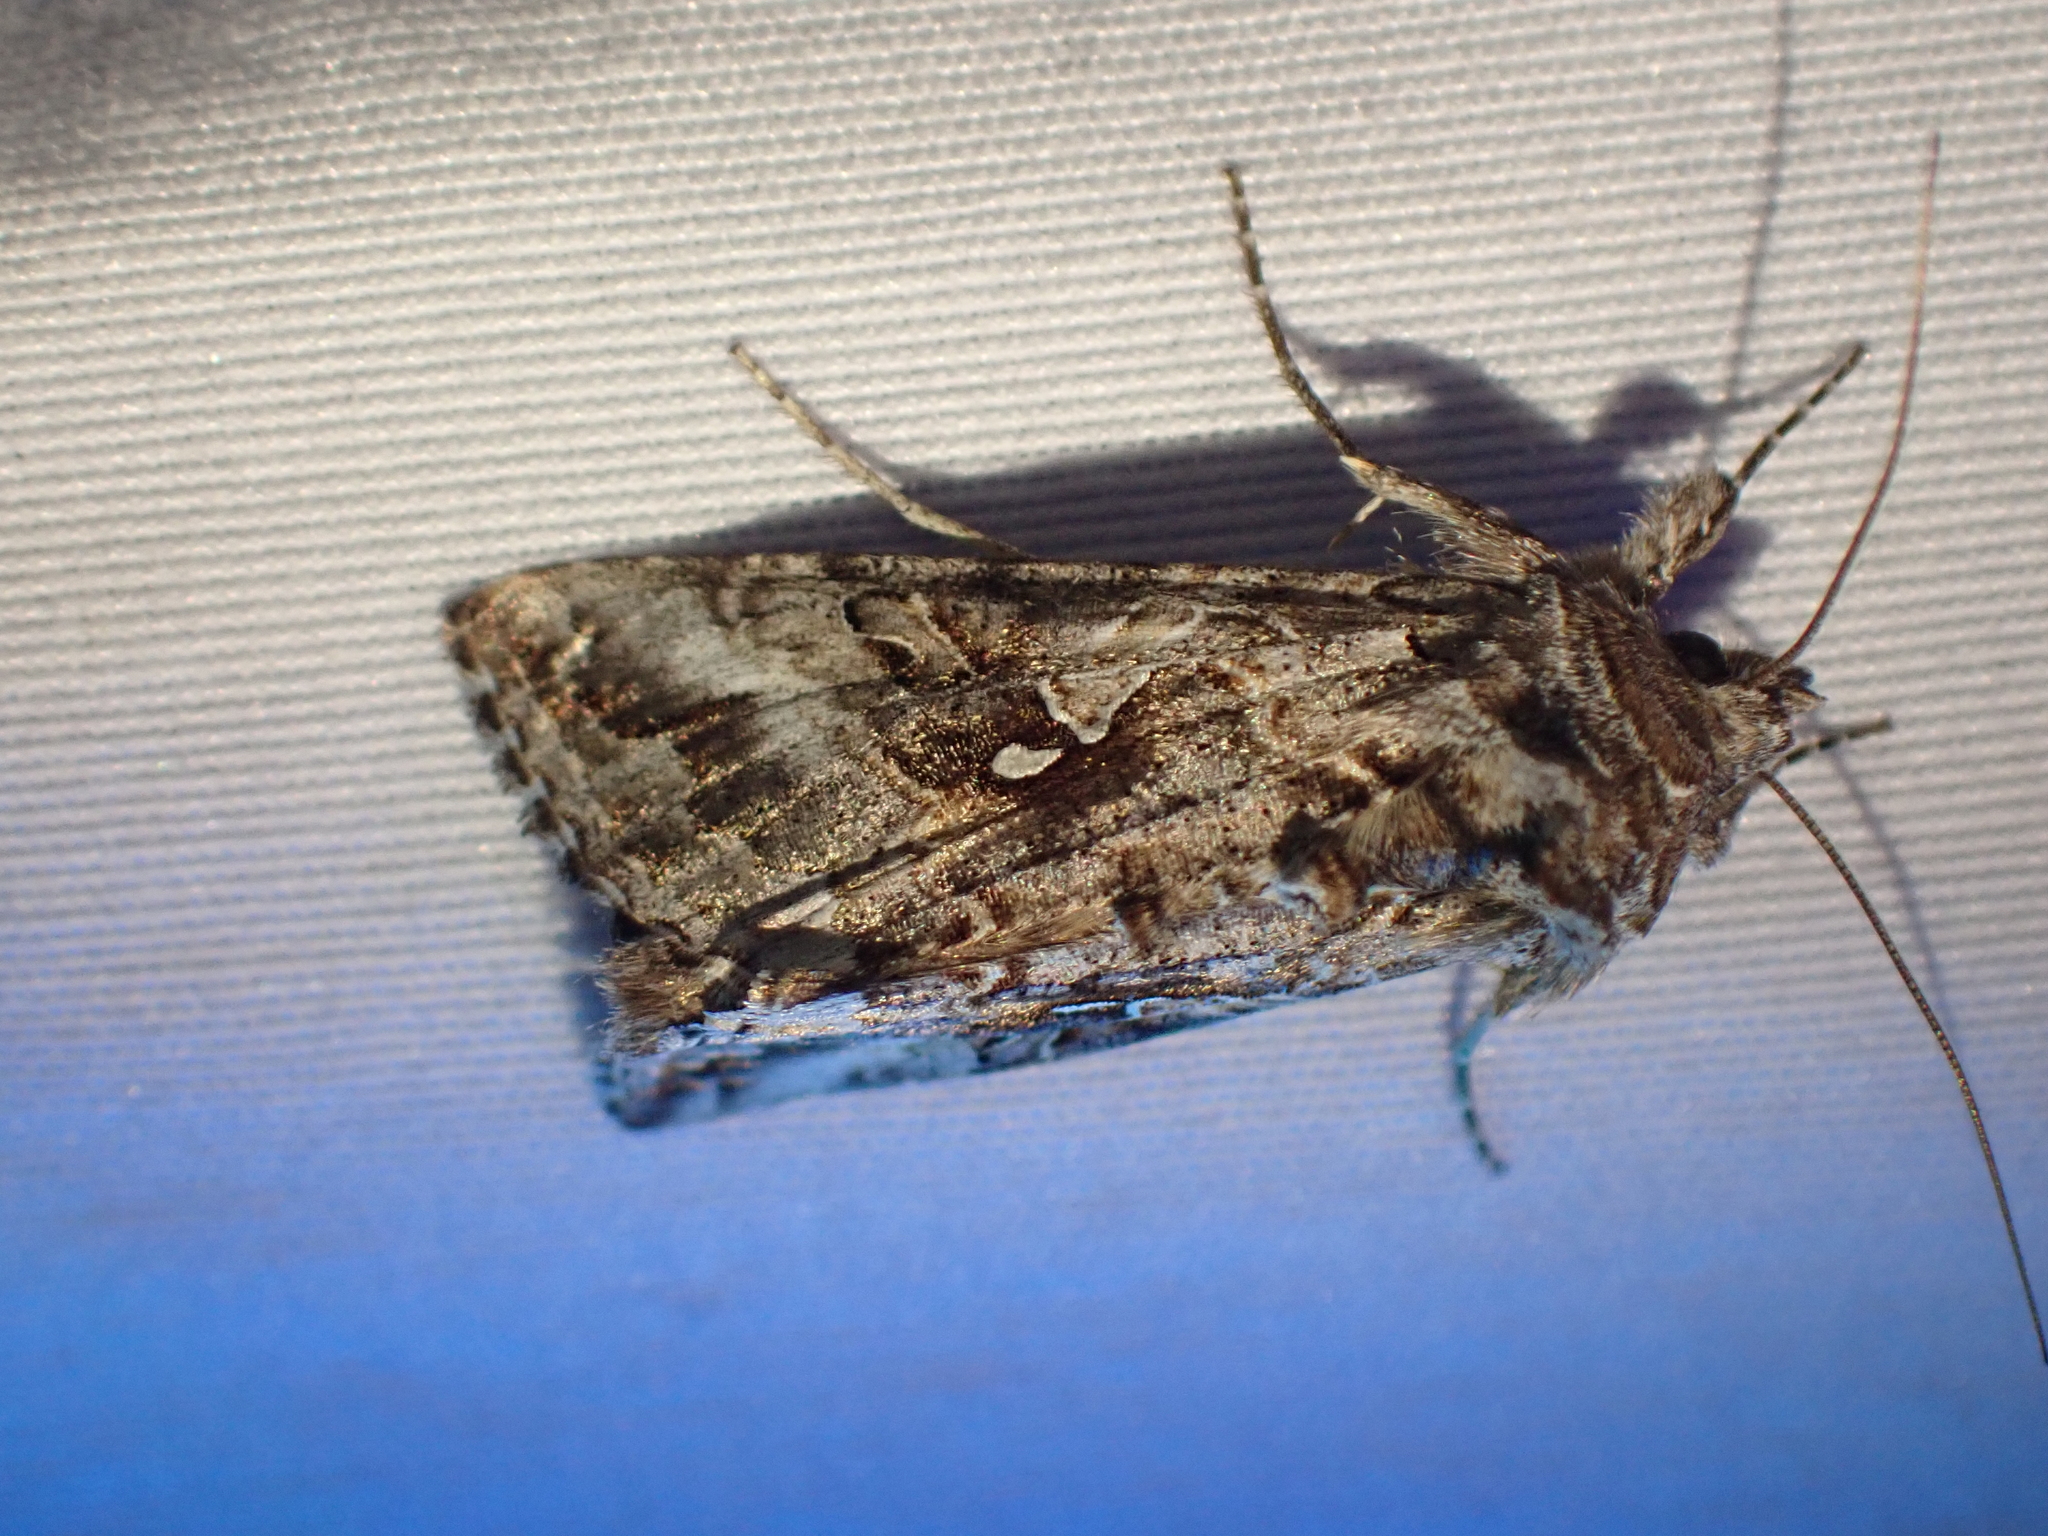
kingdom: Animalia
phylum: Arthropoda
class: Insecta
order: Lepidoptera
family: Noctuidae
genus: Autographa
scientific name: Autographa californica
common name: Alfalfa looper
